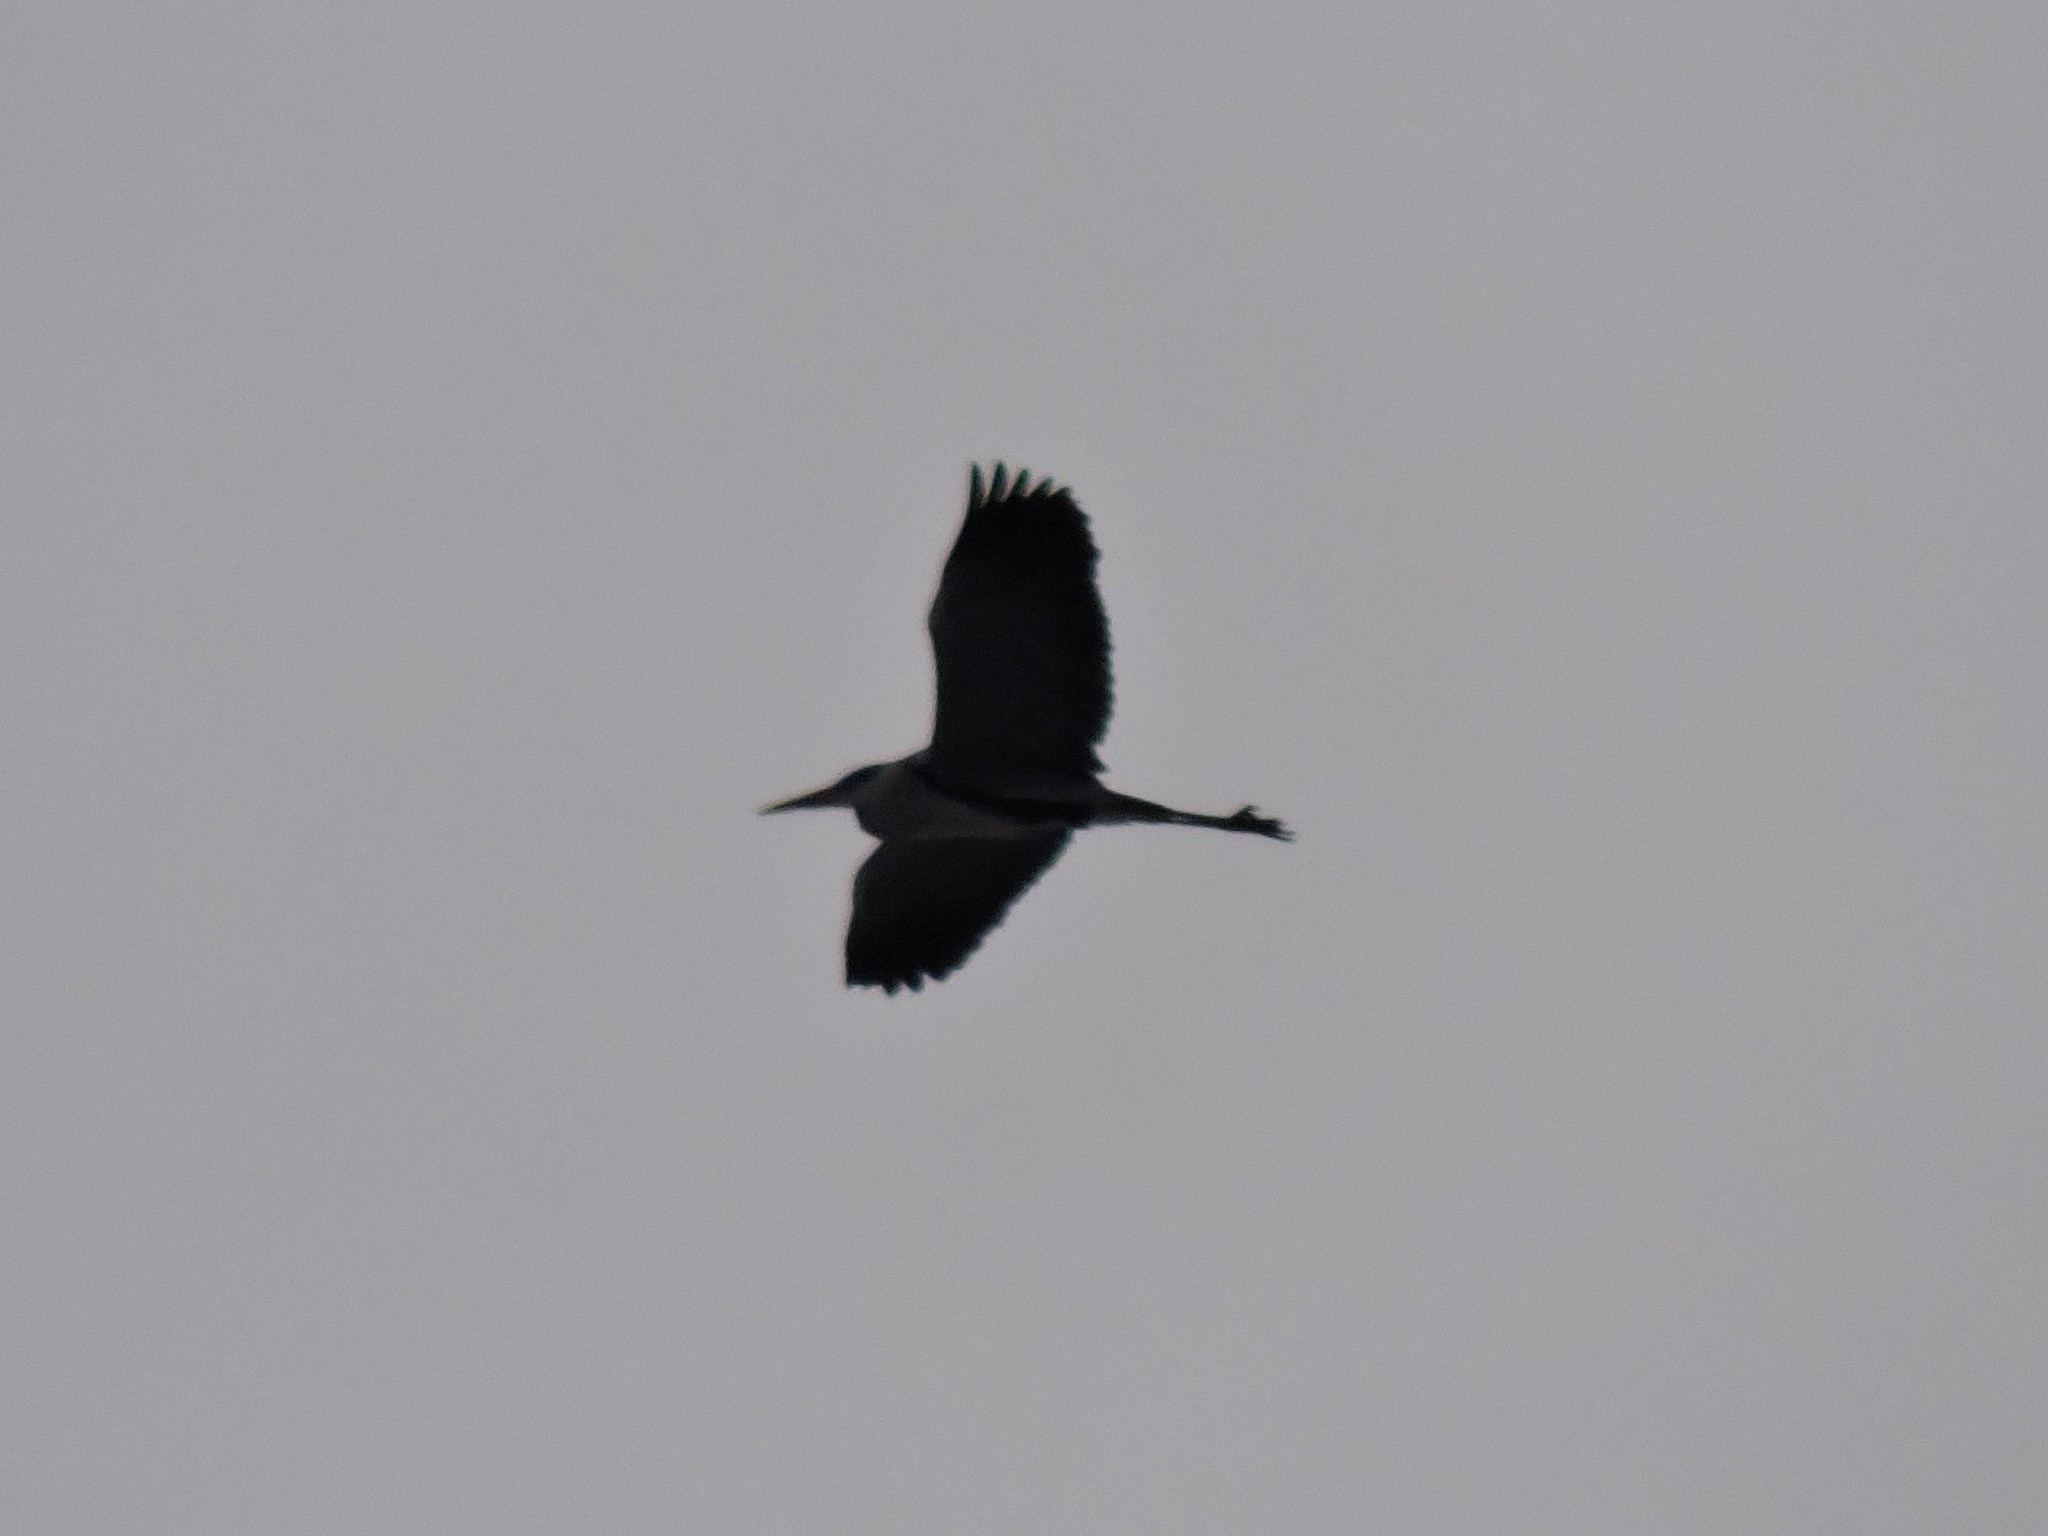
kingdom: Animalia
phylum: Chordata
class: Aves
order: Pelecaniformes
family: Ardeidae
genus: Ardea
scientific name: Ardea cinerea
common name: Grey heron
